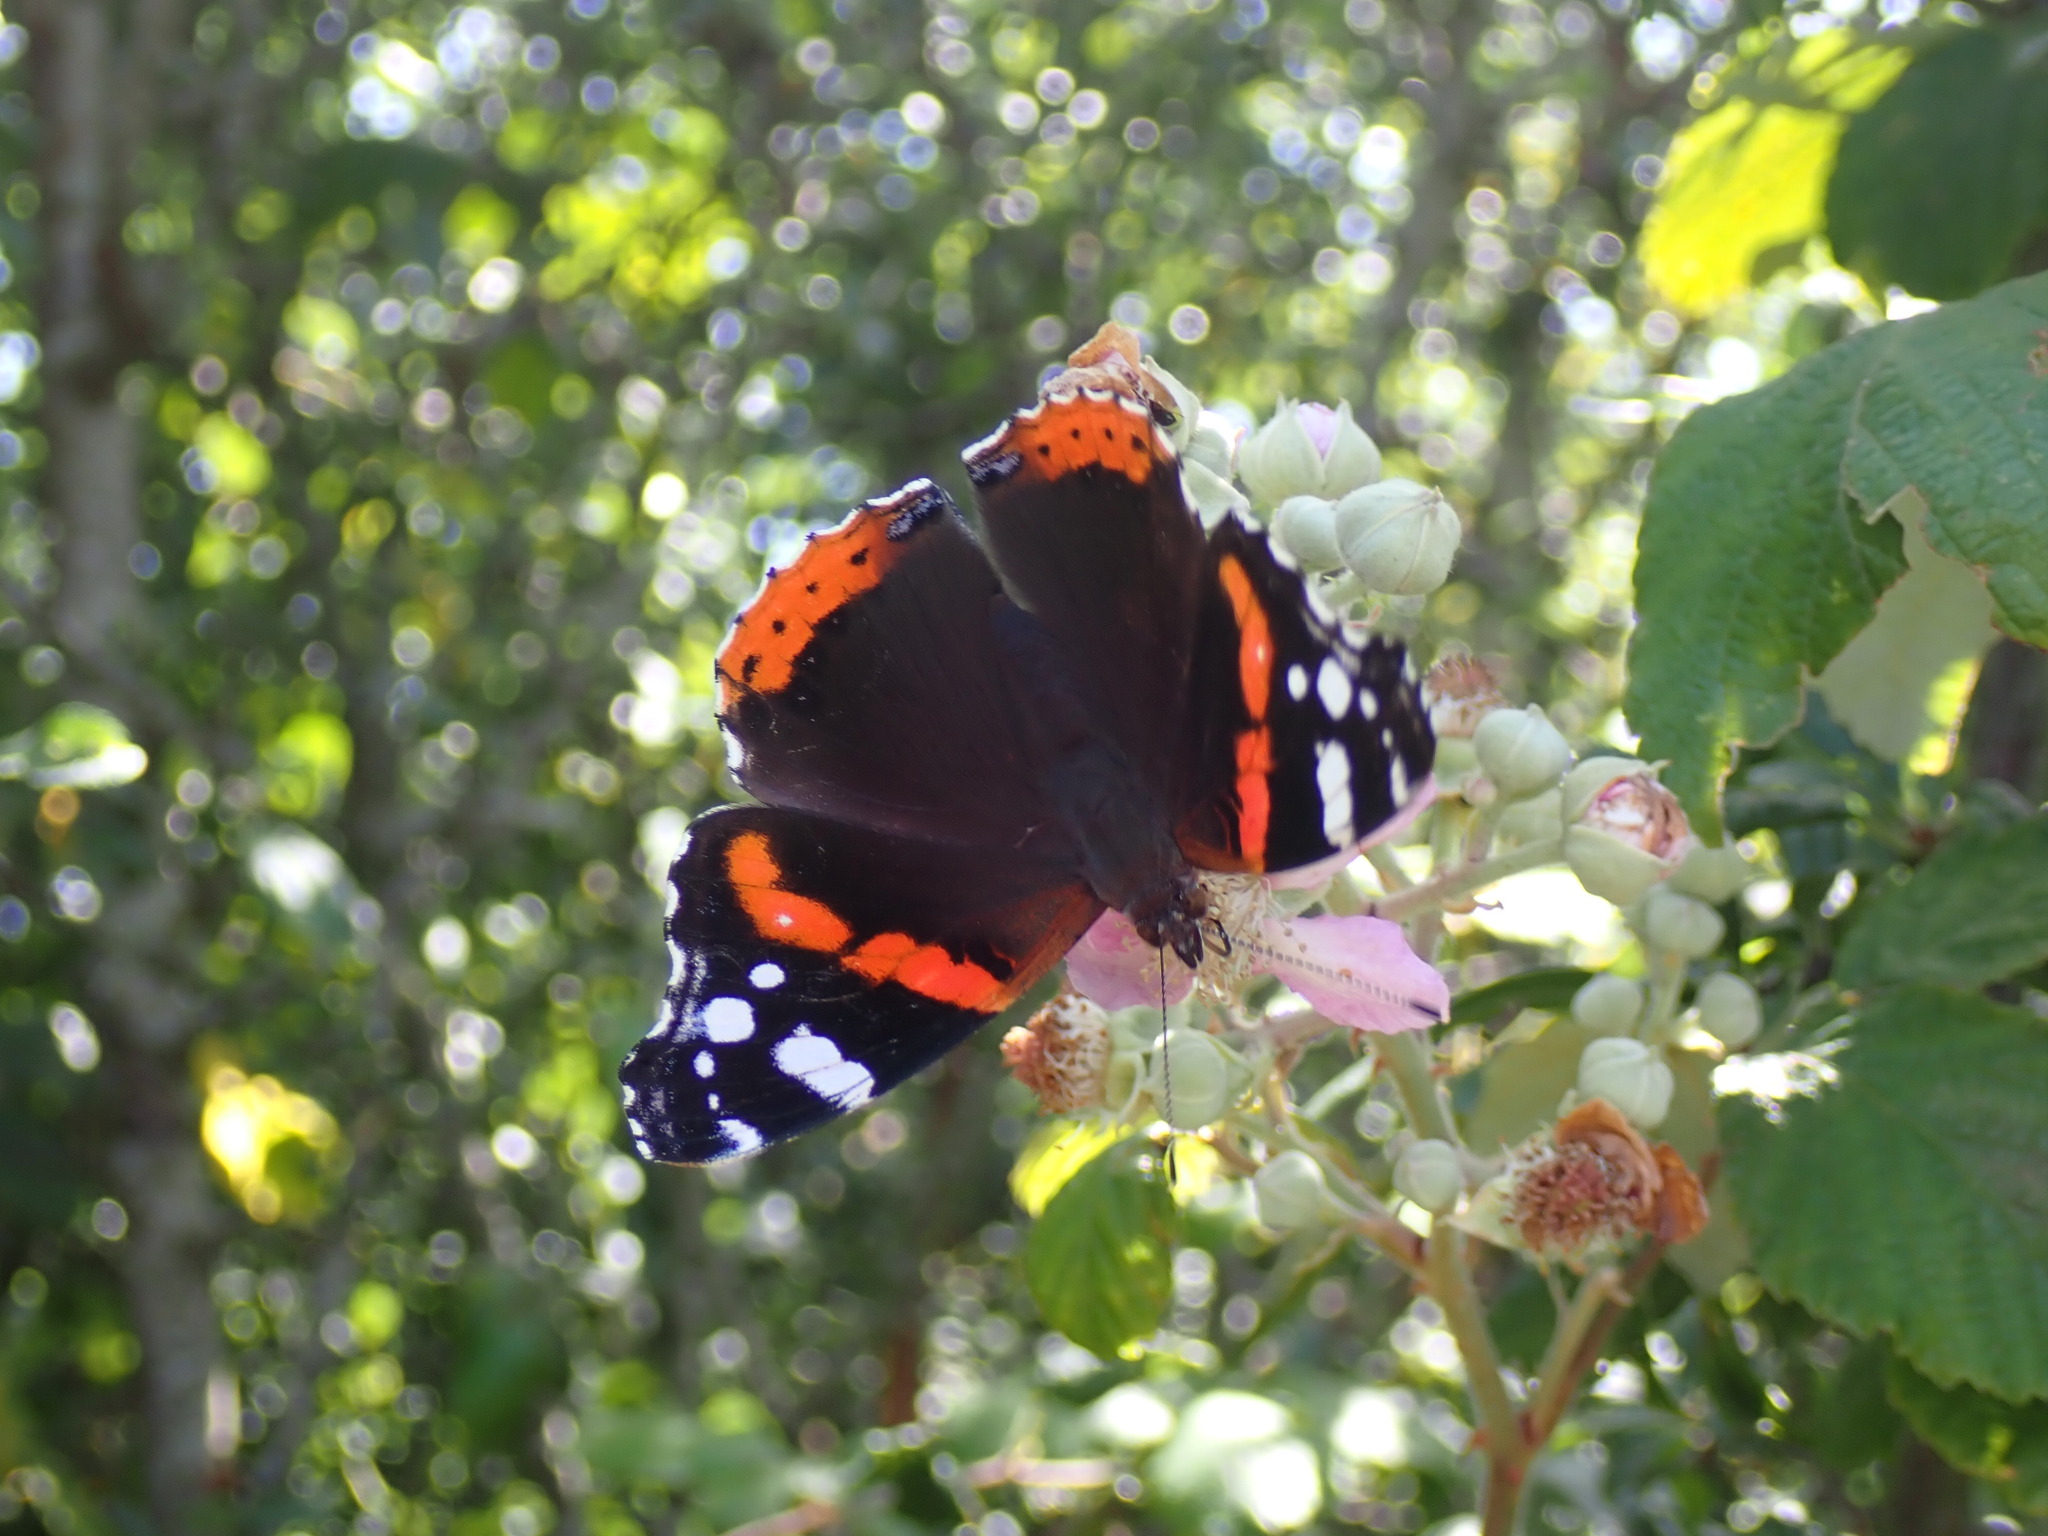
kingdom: Animalia
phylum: Arthropoda
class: Insecta
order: Lepidoptera
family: Nymphalidae
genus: Vanessa
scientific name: Vanessa atalanta
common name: Red admiral
